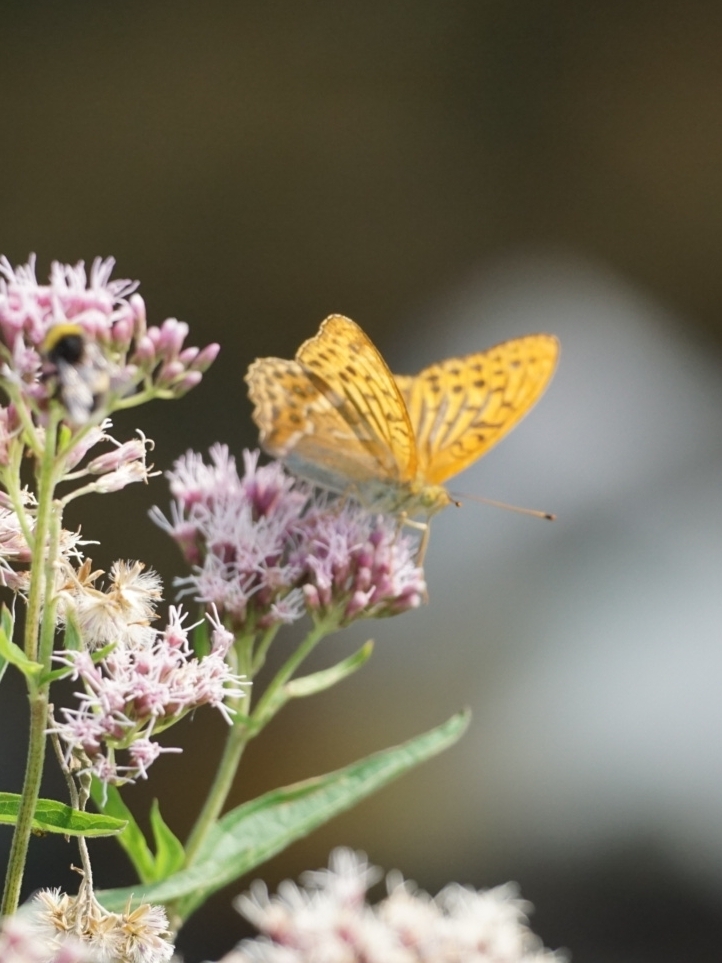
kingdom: Animalia
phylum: Arthropoda
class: Insecta
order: Lepidoptera
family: Nymphalidae
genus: Argynnis
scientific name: Argynnis paphia
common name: Silver-washed fritillary
